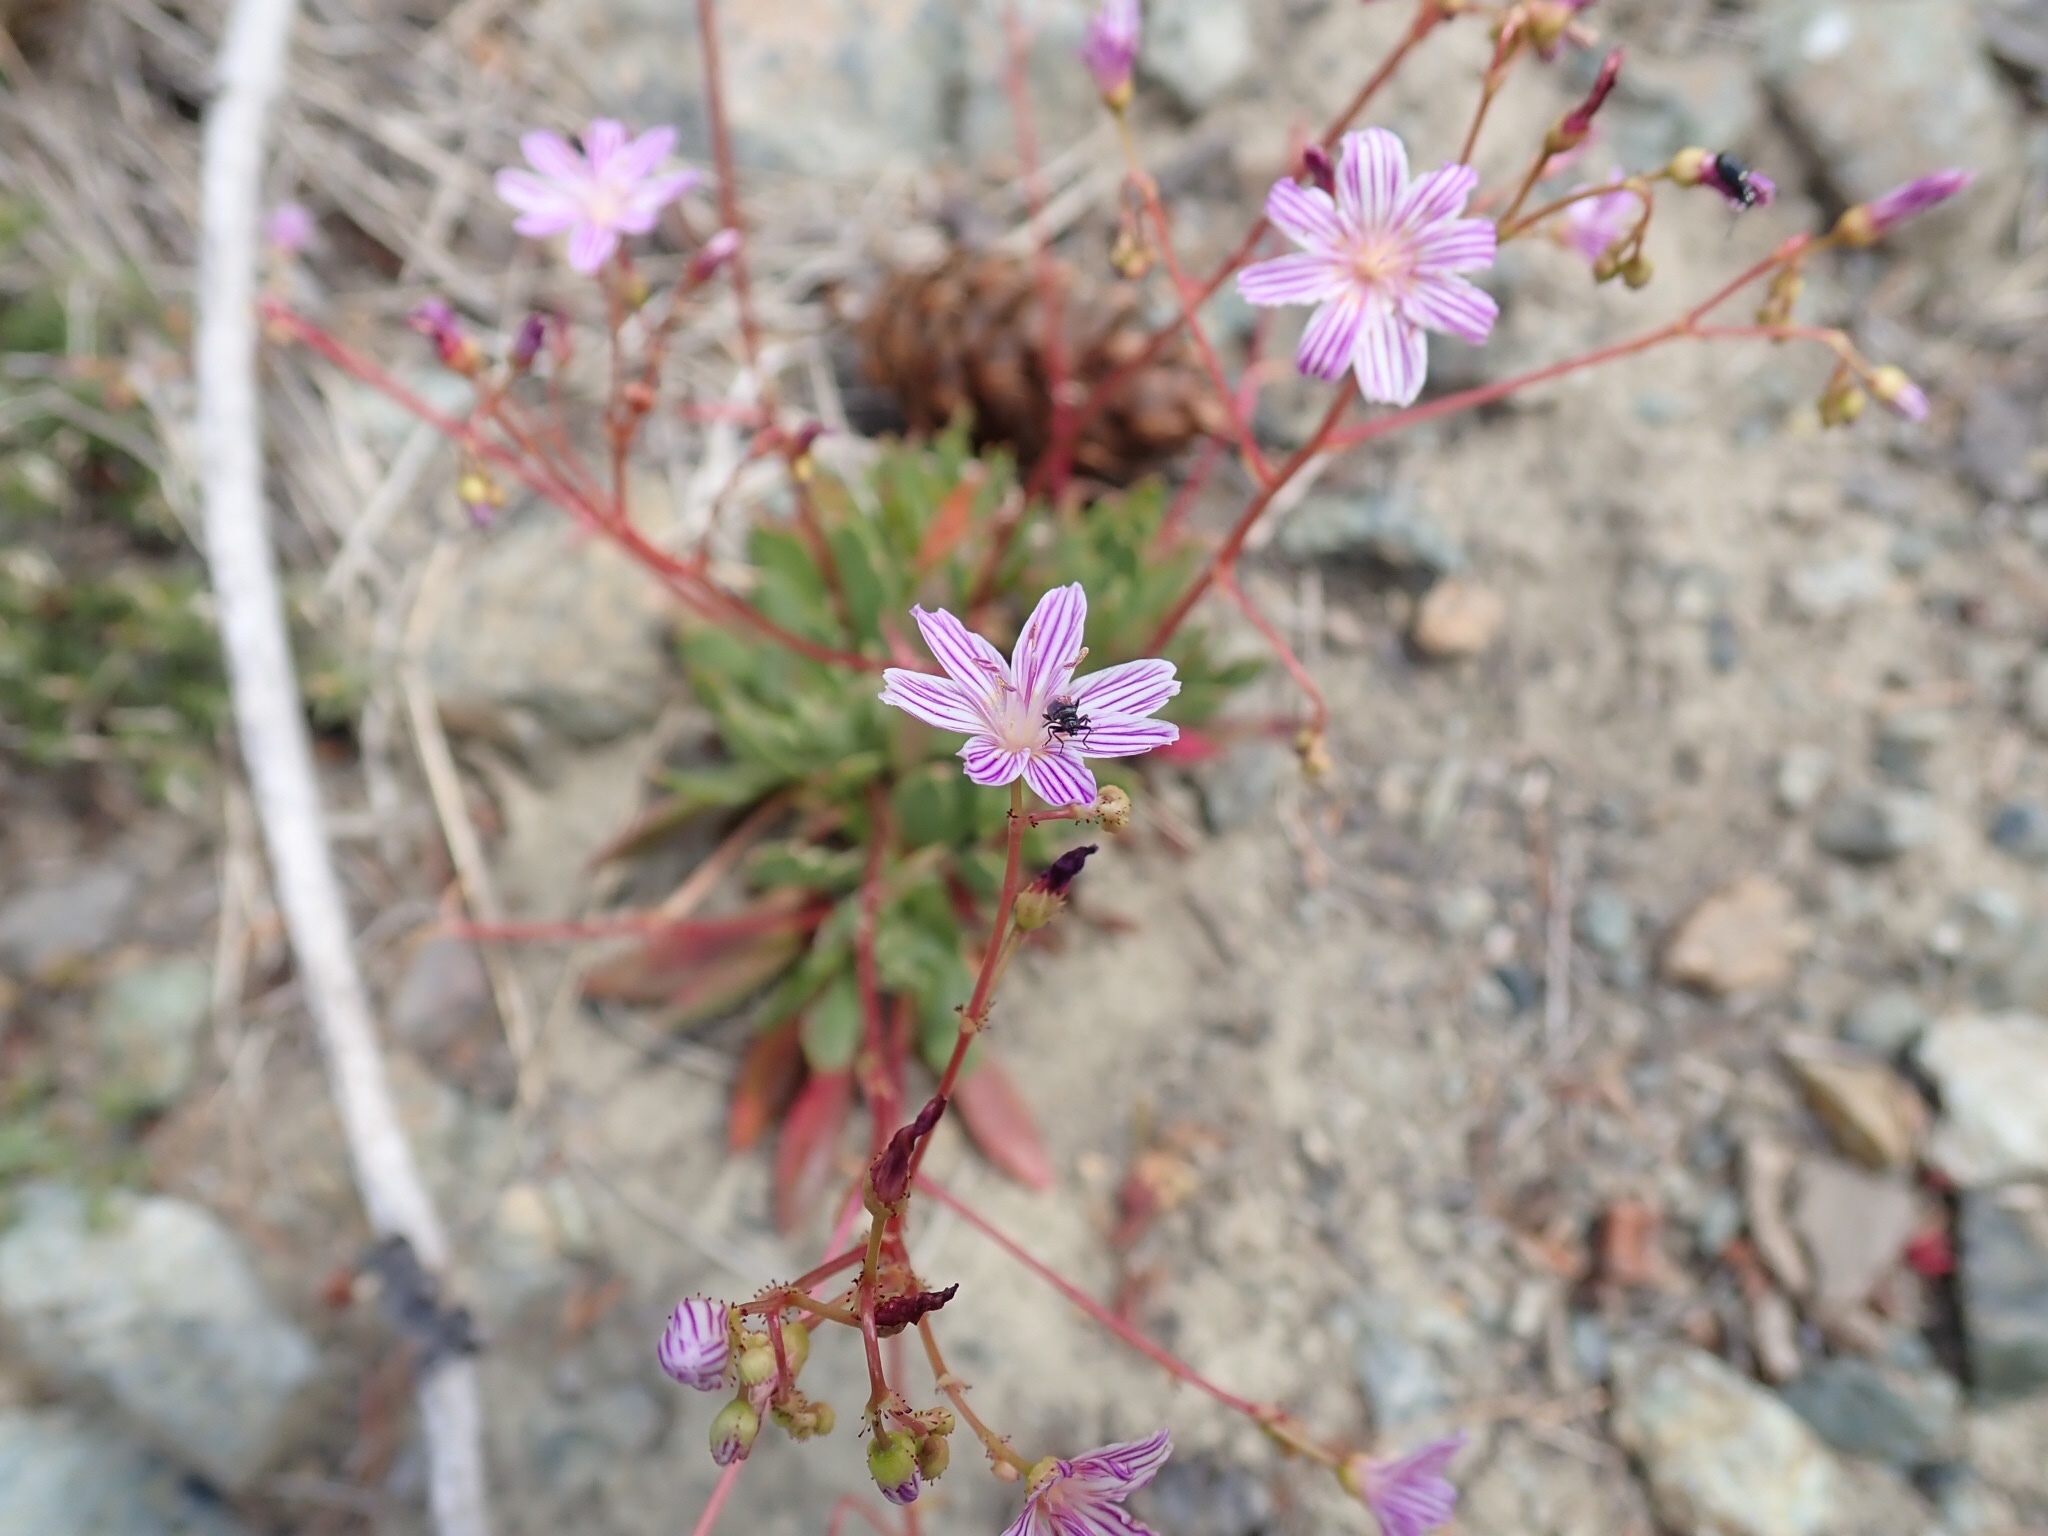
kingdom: Plantae
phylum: Tracheophyta
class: Magnoliopsida
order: Caryophyllales
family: Montiaceae
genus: Lewisia
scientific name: Lewisia columbiana
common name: Columbia lewisia
